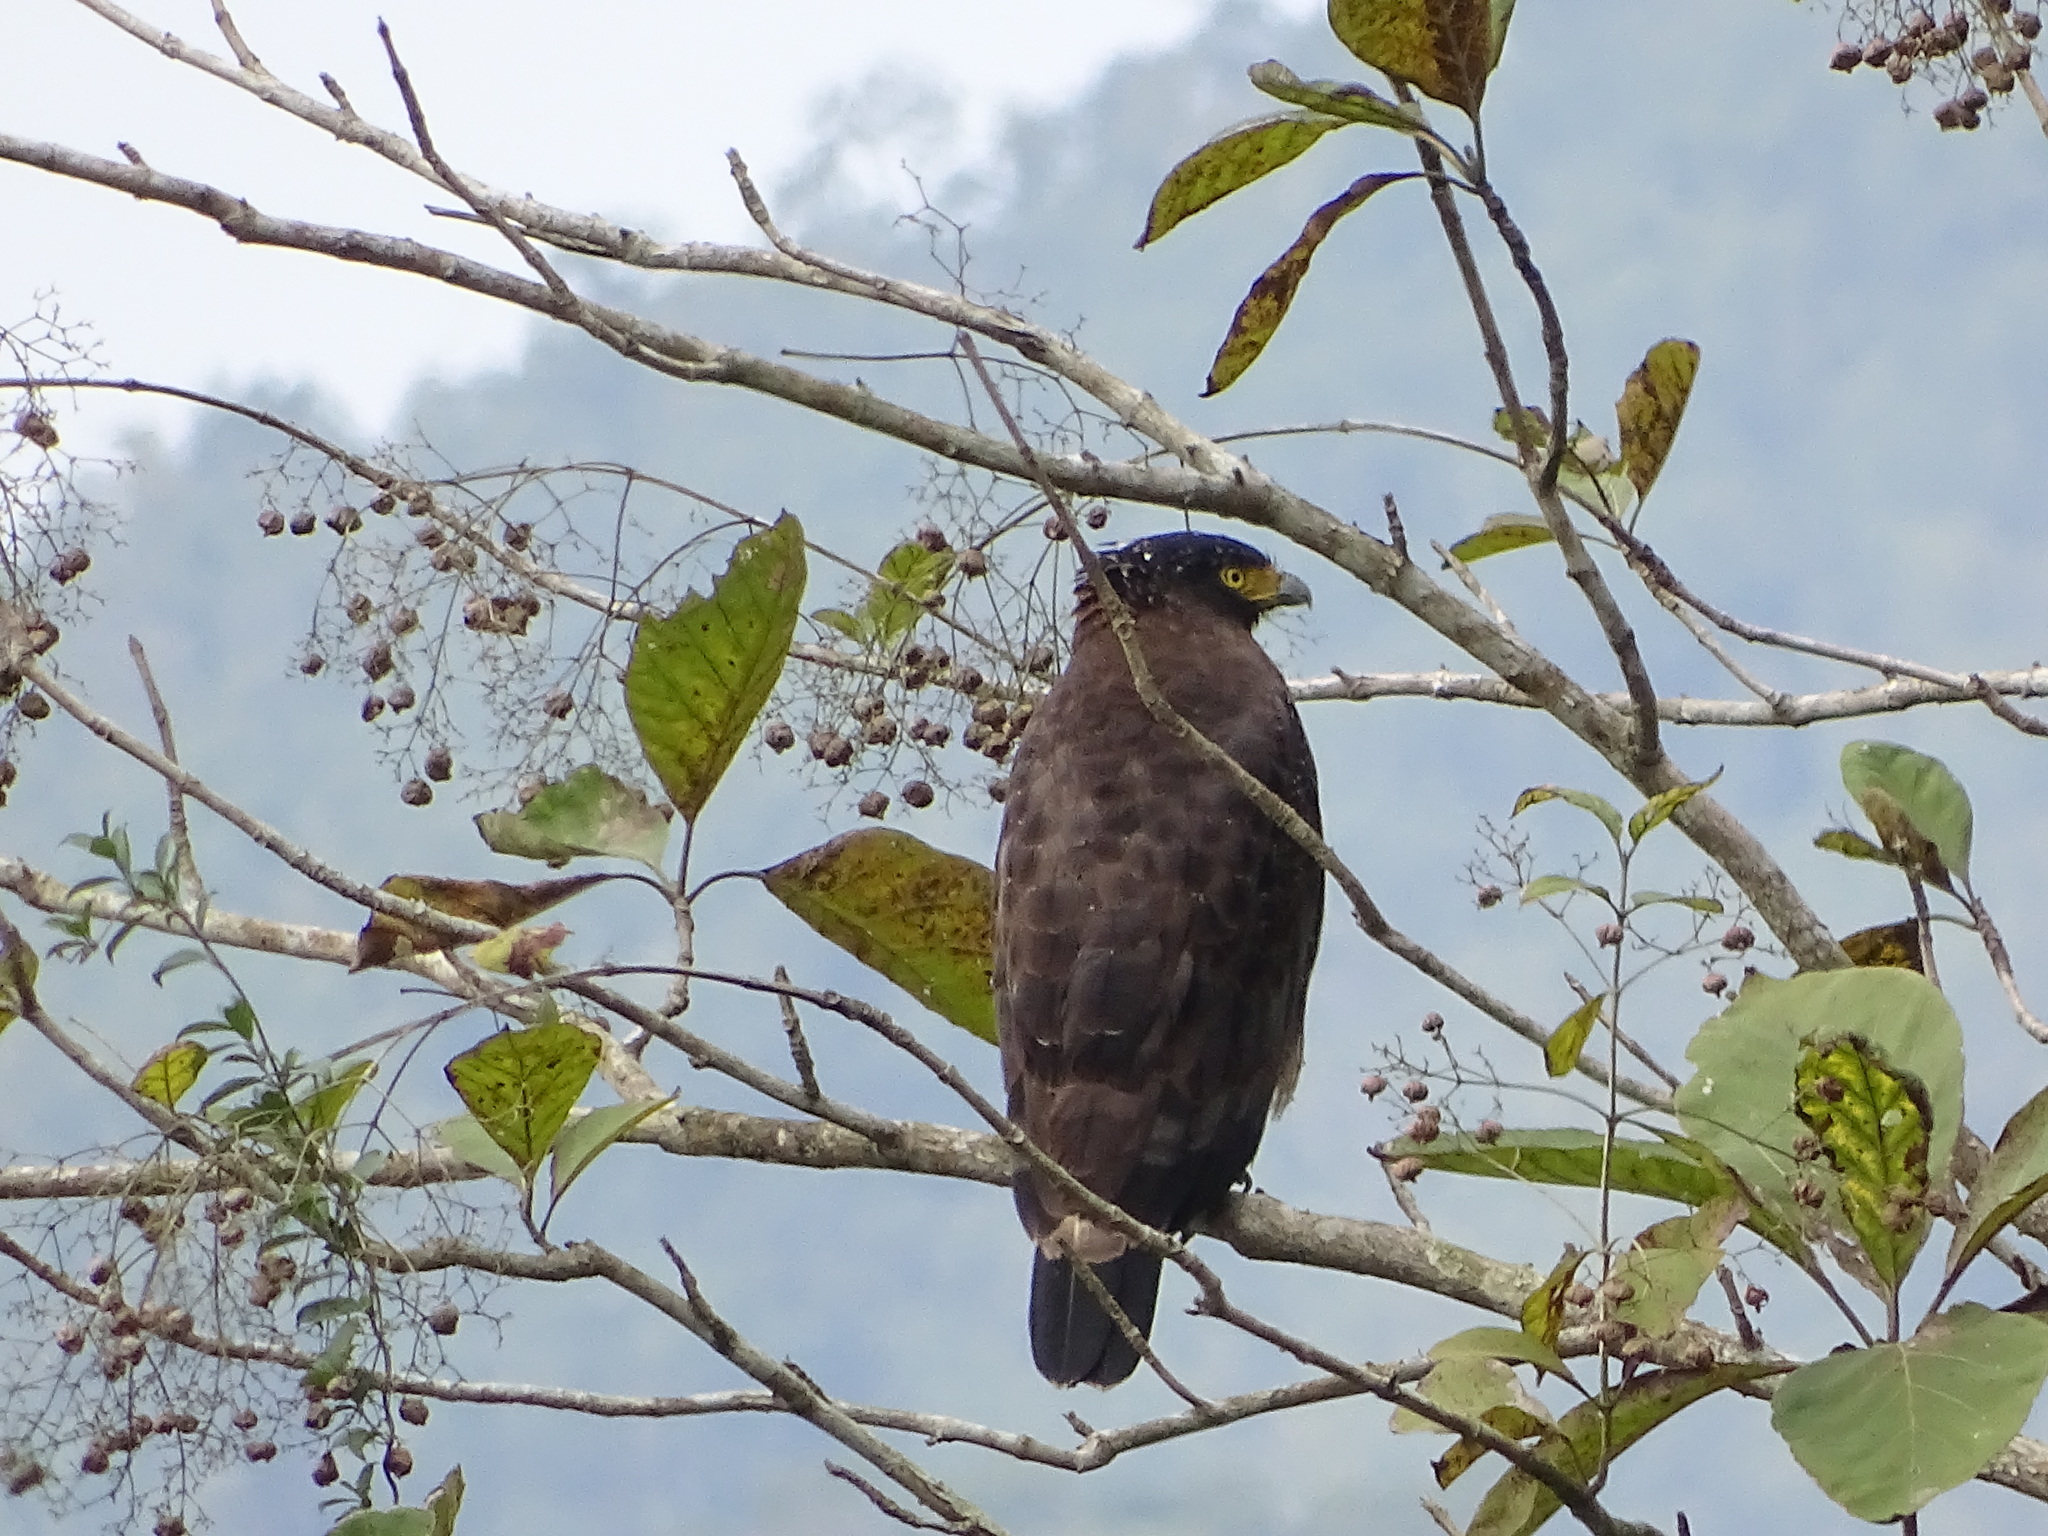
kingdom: Animalia
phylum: Chordata
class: Aves
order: Accipitriformes
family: Accipitridae
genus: Spilornis
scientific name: Spilornis cheela
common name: Crested serpent eagle
